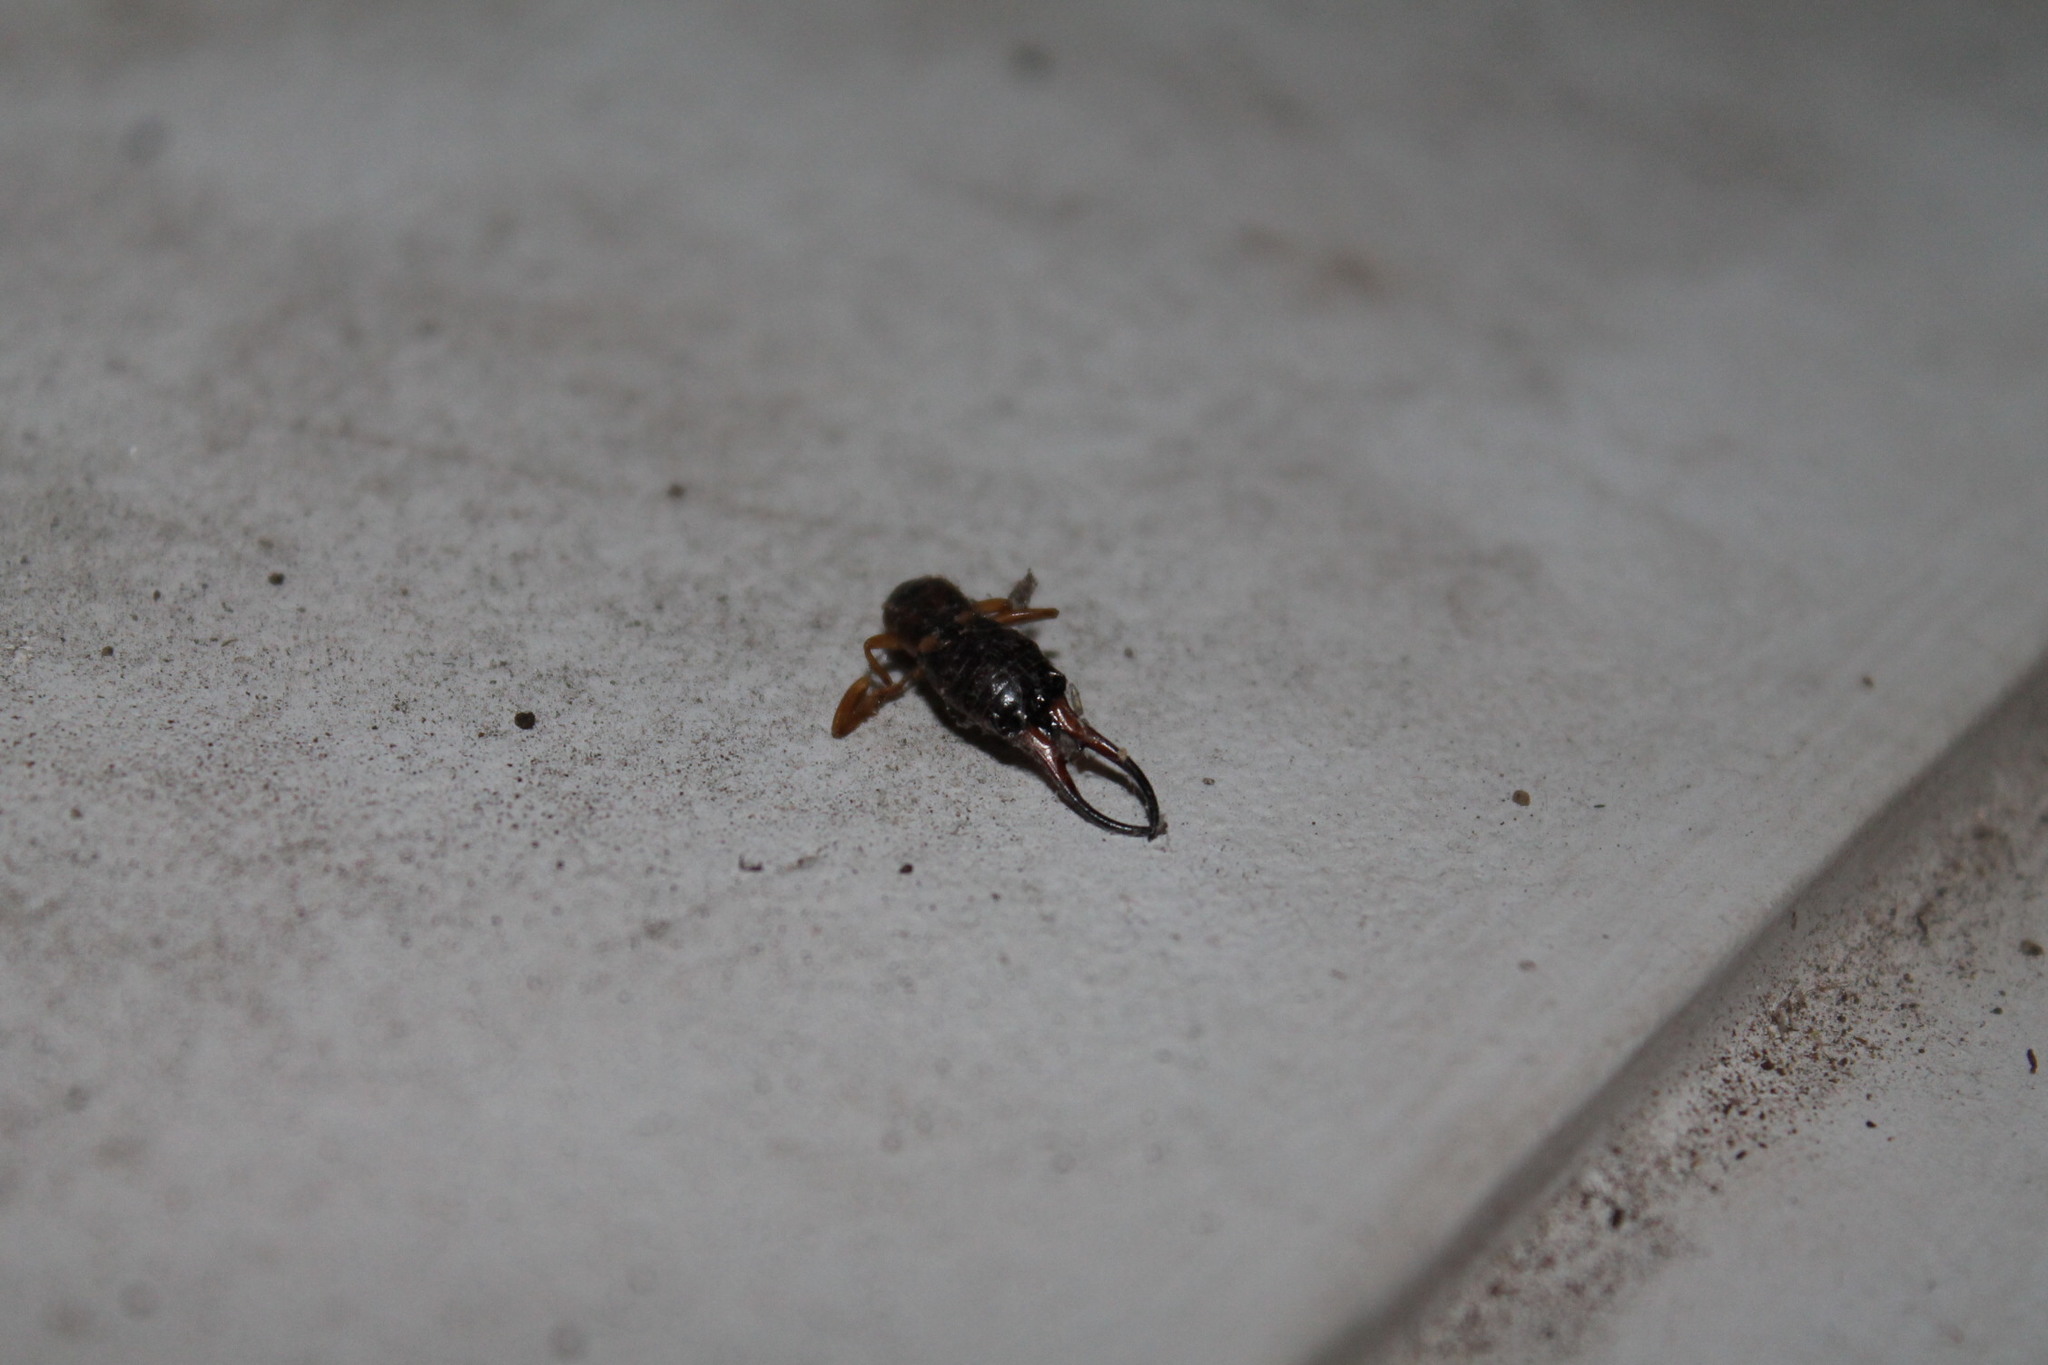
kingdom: Animalia
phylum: Arthropoda
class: Insecta
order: Dermaptera
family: Forficulidae
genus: Forficula
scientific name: Forficula
